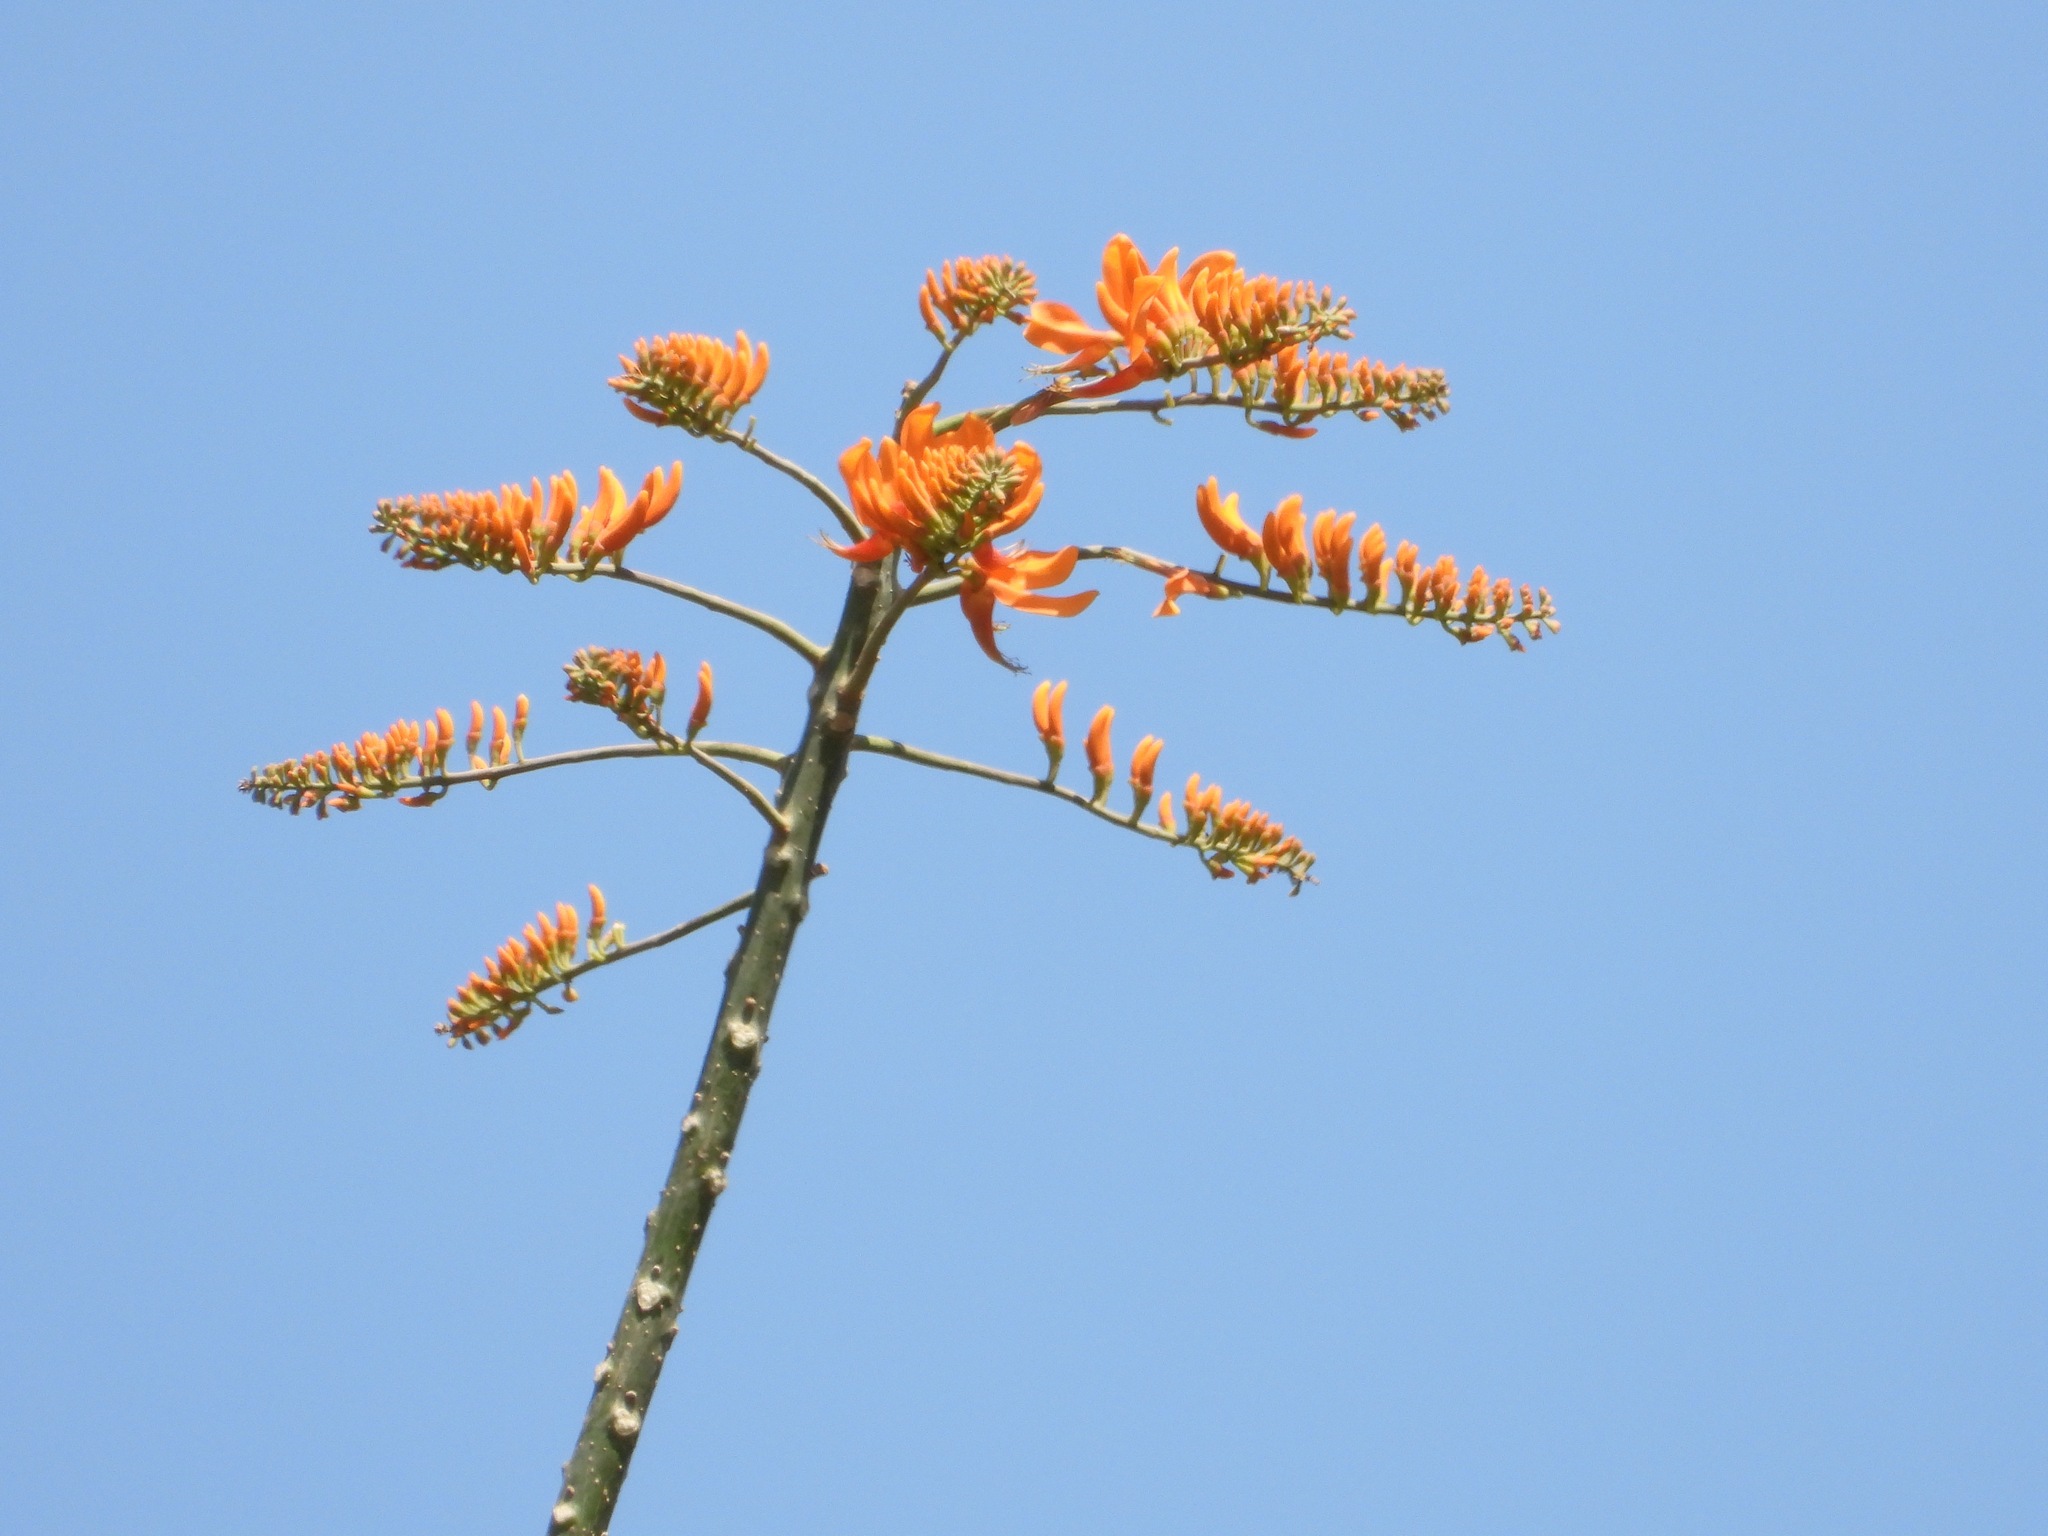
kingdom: Plantae
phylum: Tracheophyta
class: Magnoliopsida
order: Fabales
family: Fabaceae
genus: Erythrina
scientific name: Erythrina poeppigiana
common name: Coral tree
